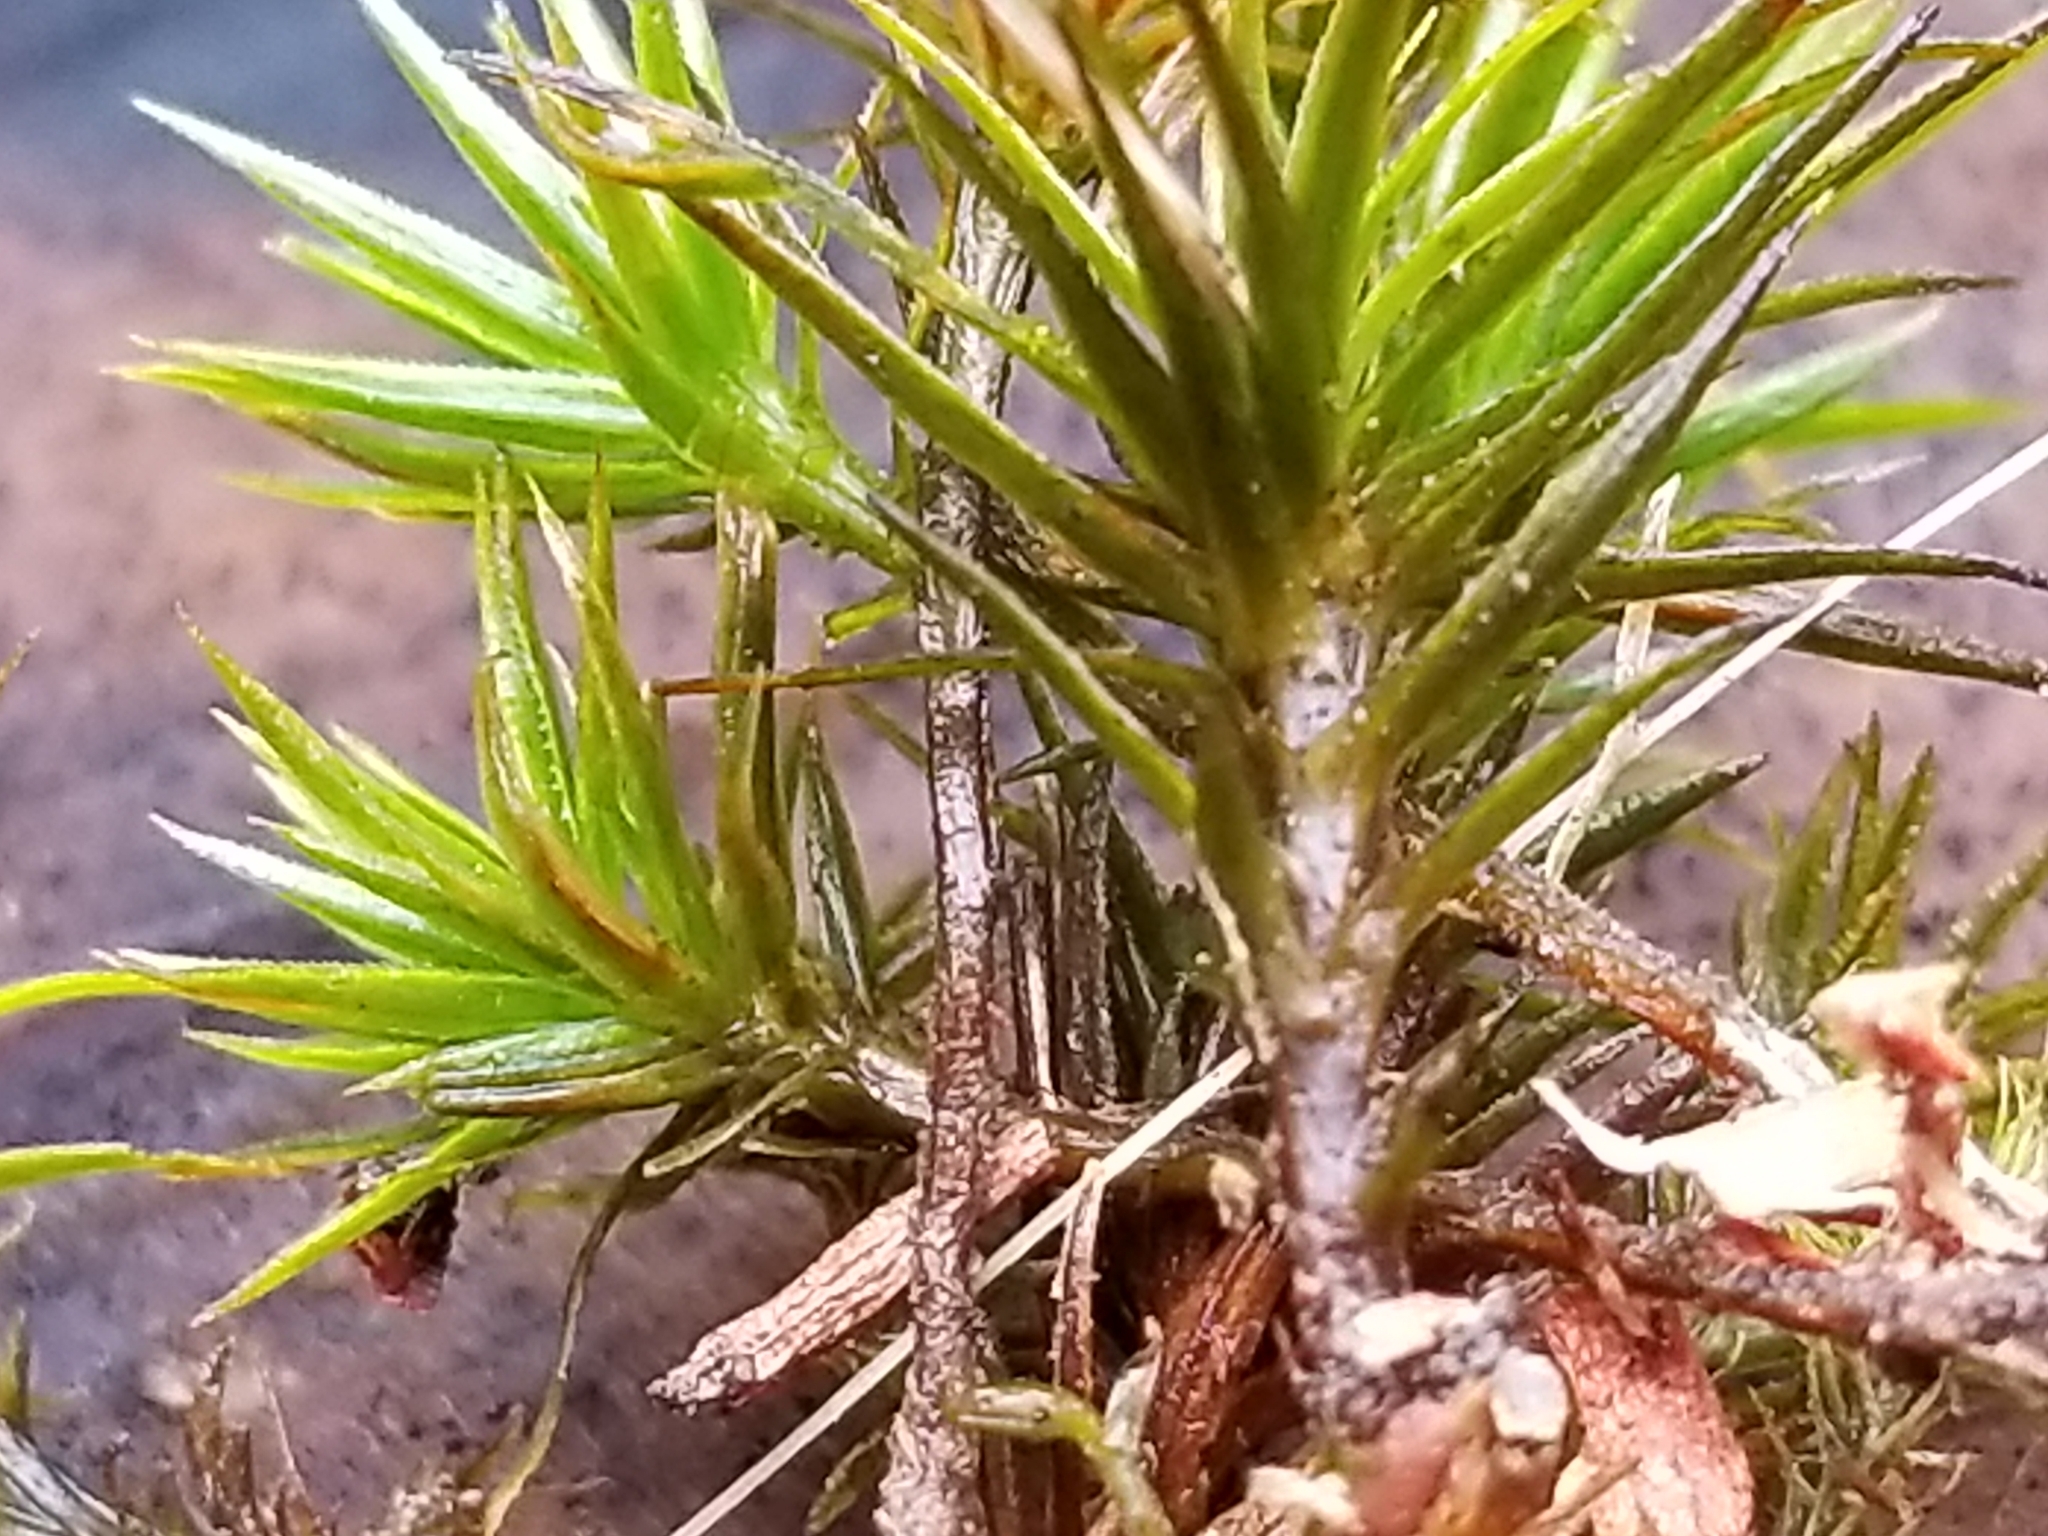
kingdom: Plantae
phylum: Bryophyta
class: Polytrichopsida
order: Polytrichales
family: Polytrichaceae
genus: Polytrichum
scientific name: Polytrichum commune
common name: Common haircap
